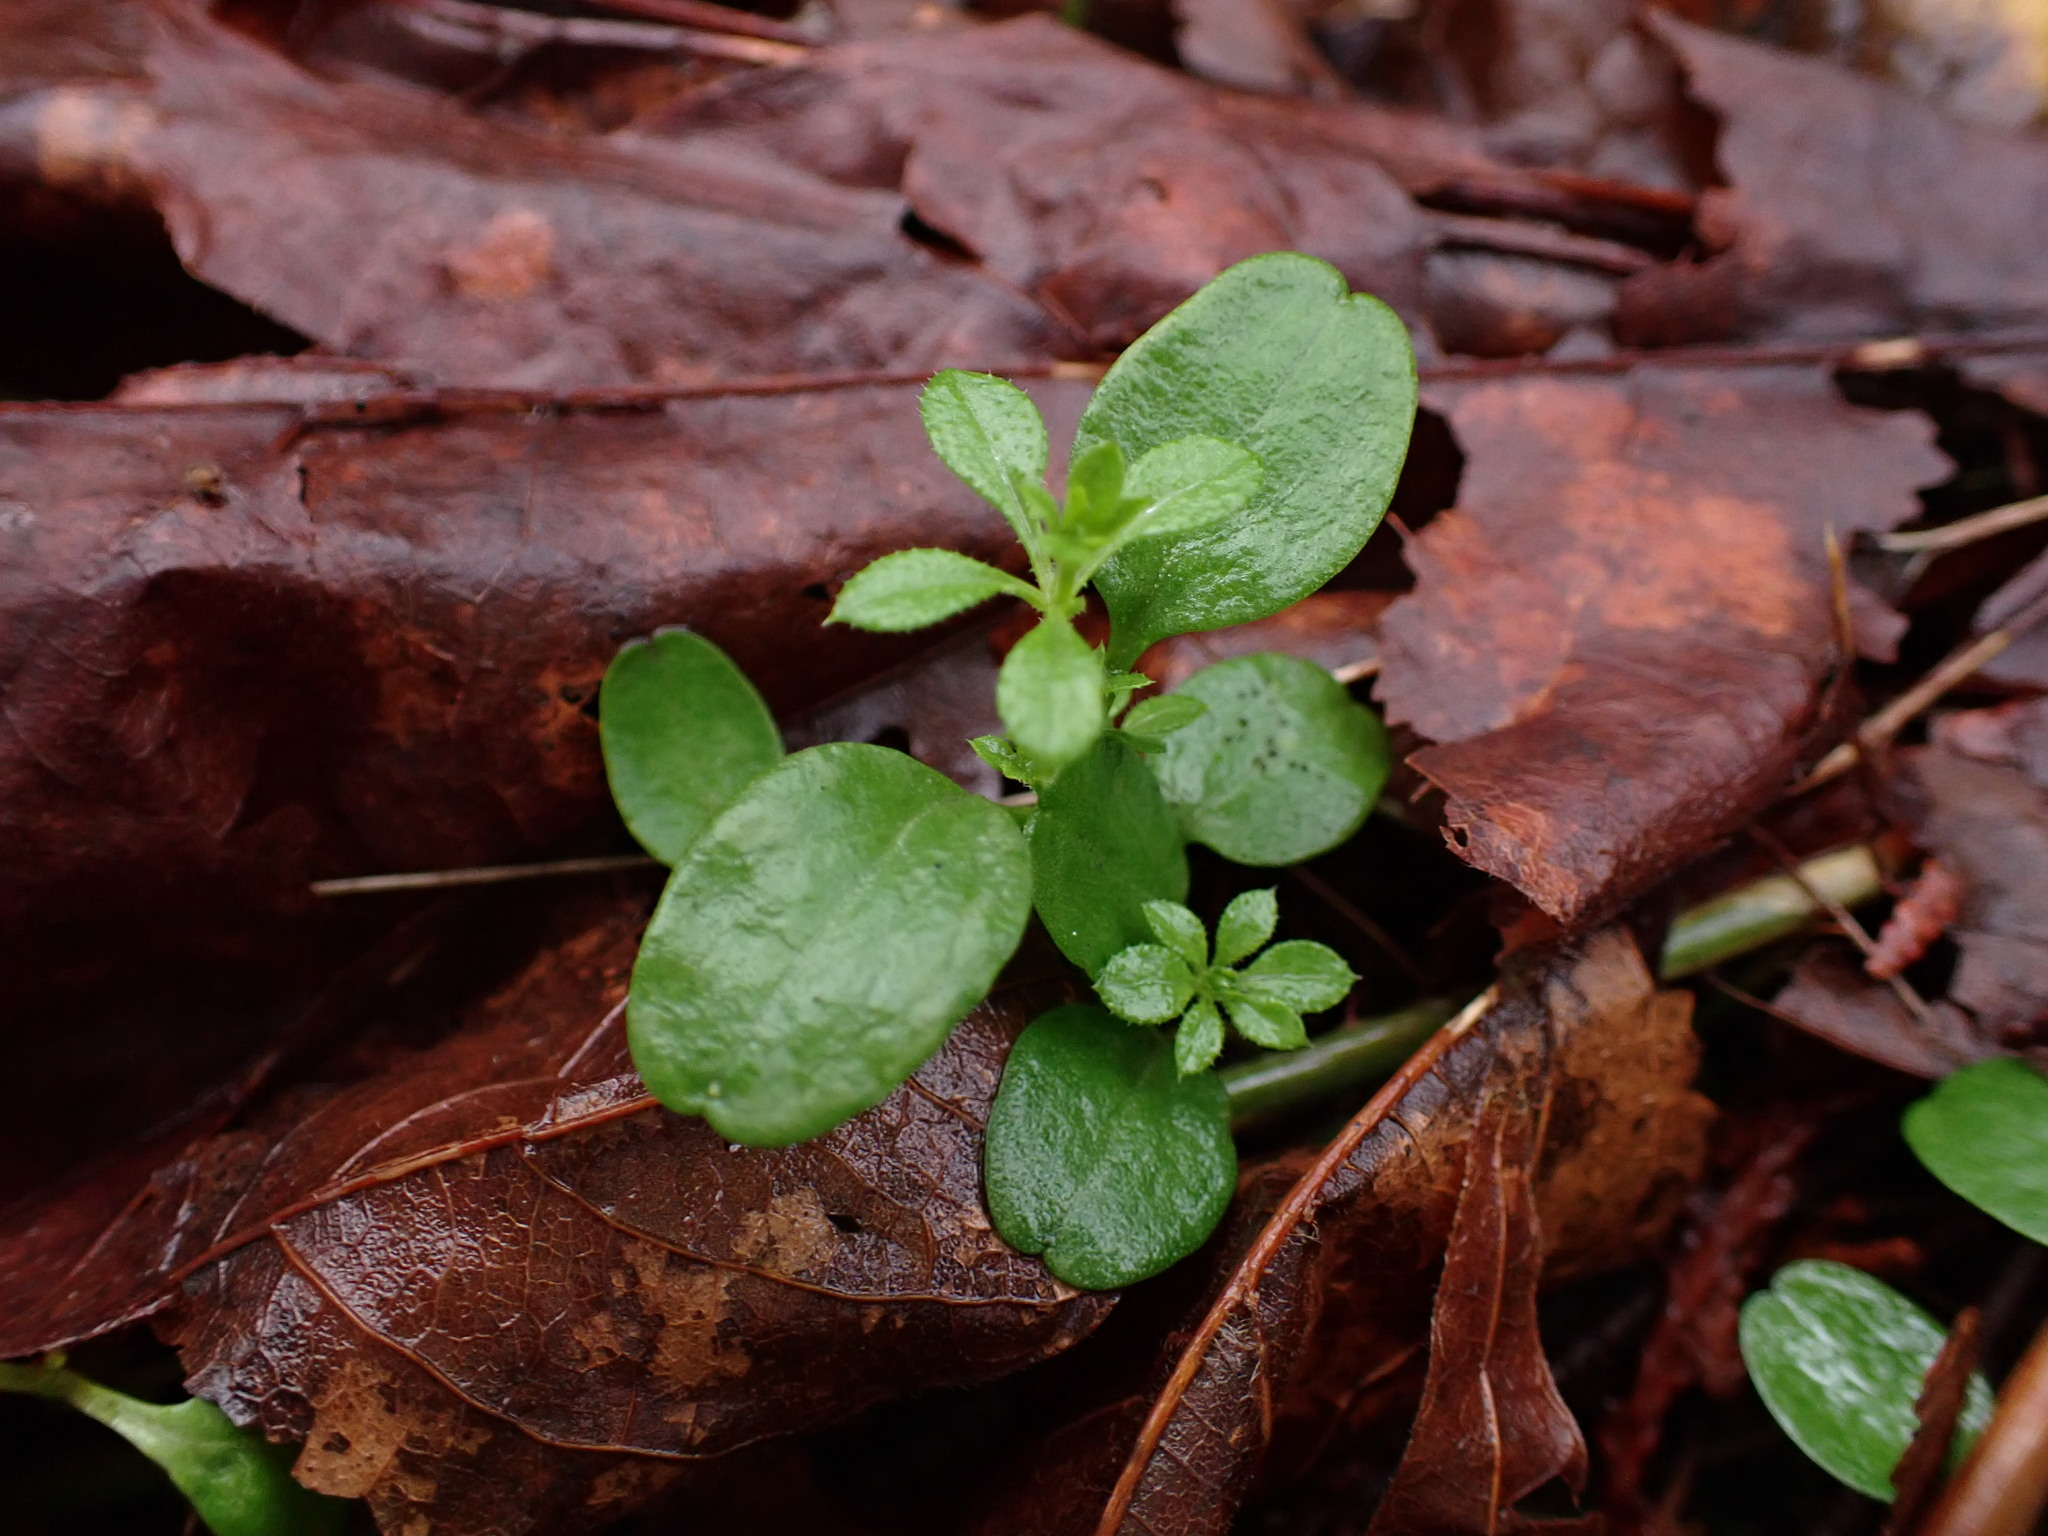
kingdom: Plantae
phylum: Tracheophyta
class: Magnoliopsida
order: Gentianales
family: Rubiaceae
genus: Galium
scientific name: Galium aparine
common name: Cleavers
